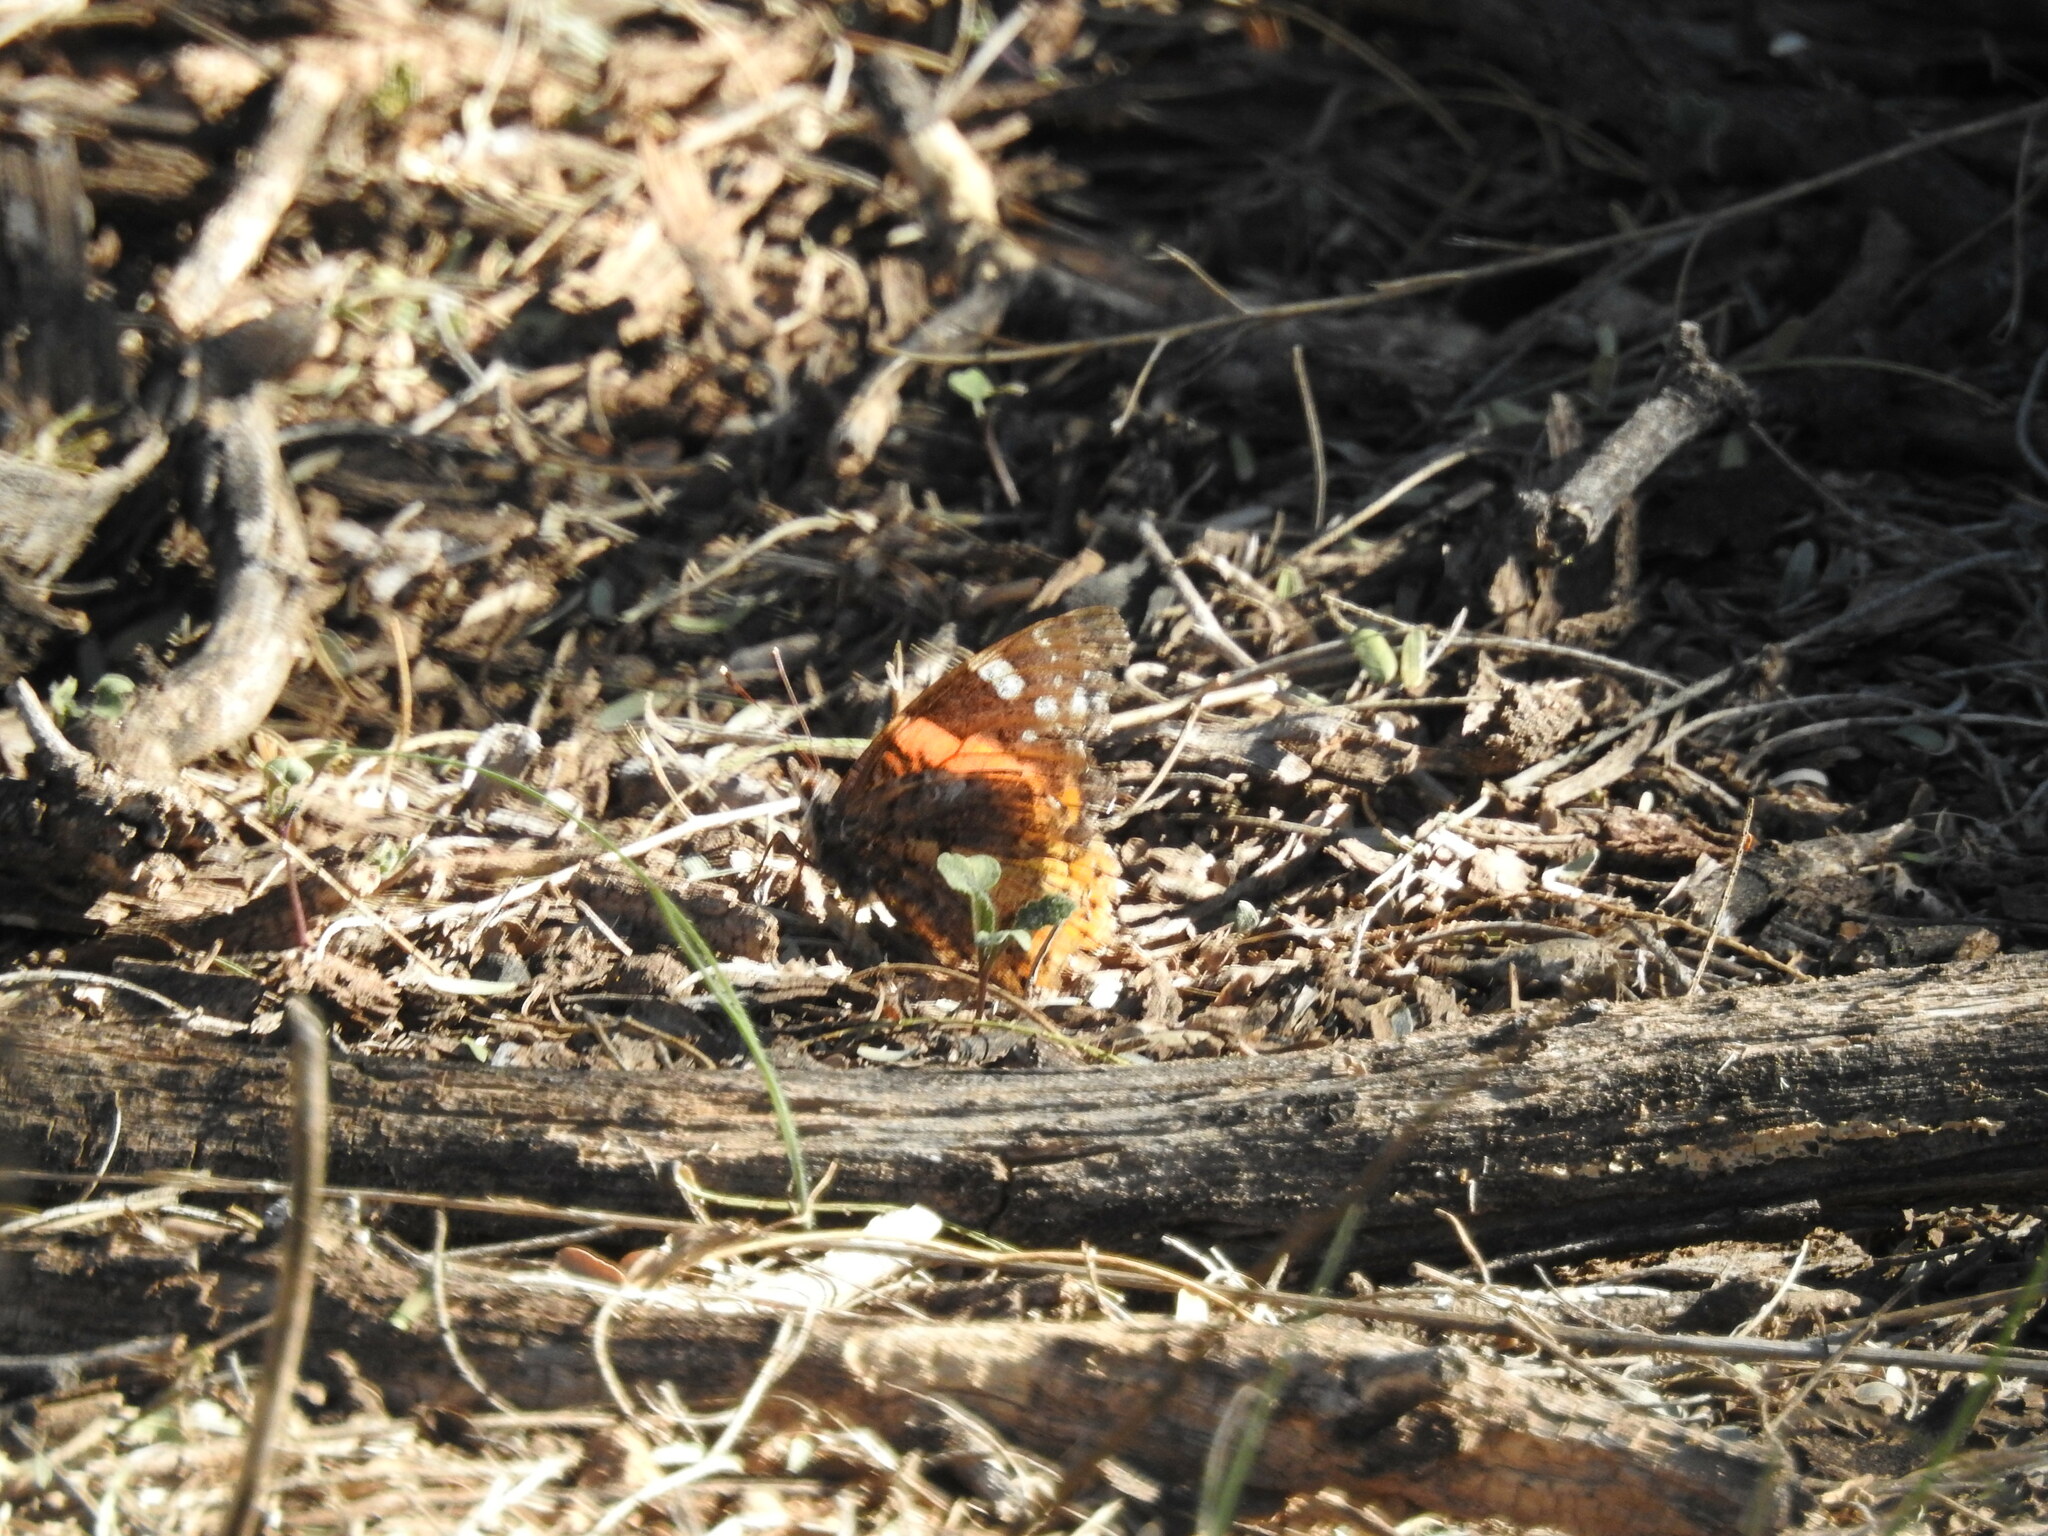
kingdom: Animalia
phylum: Arthropoda
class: Insecta
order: Lepidoptera
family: Nymphalidae
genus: Vanessa
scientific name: Vanessa atalanta
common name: Red admiral
